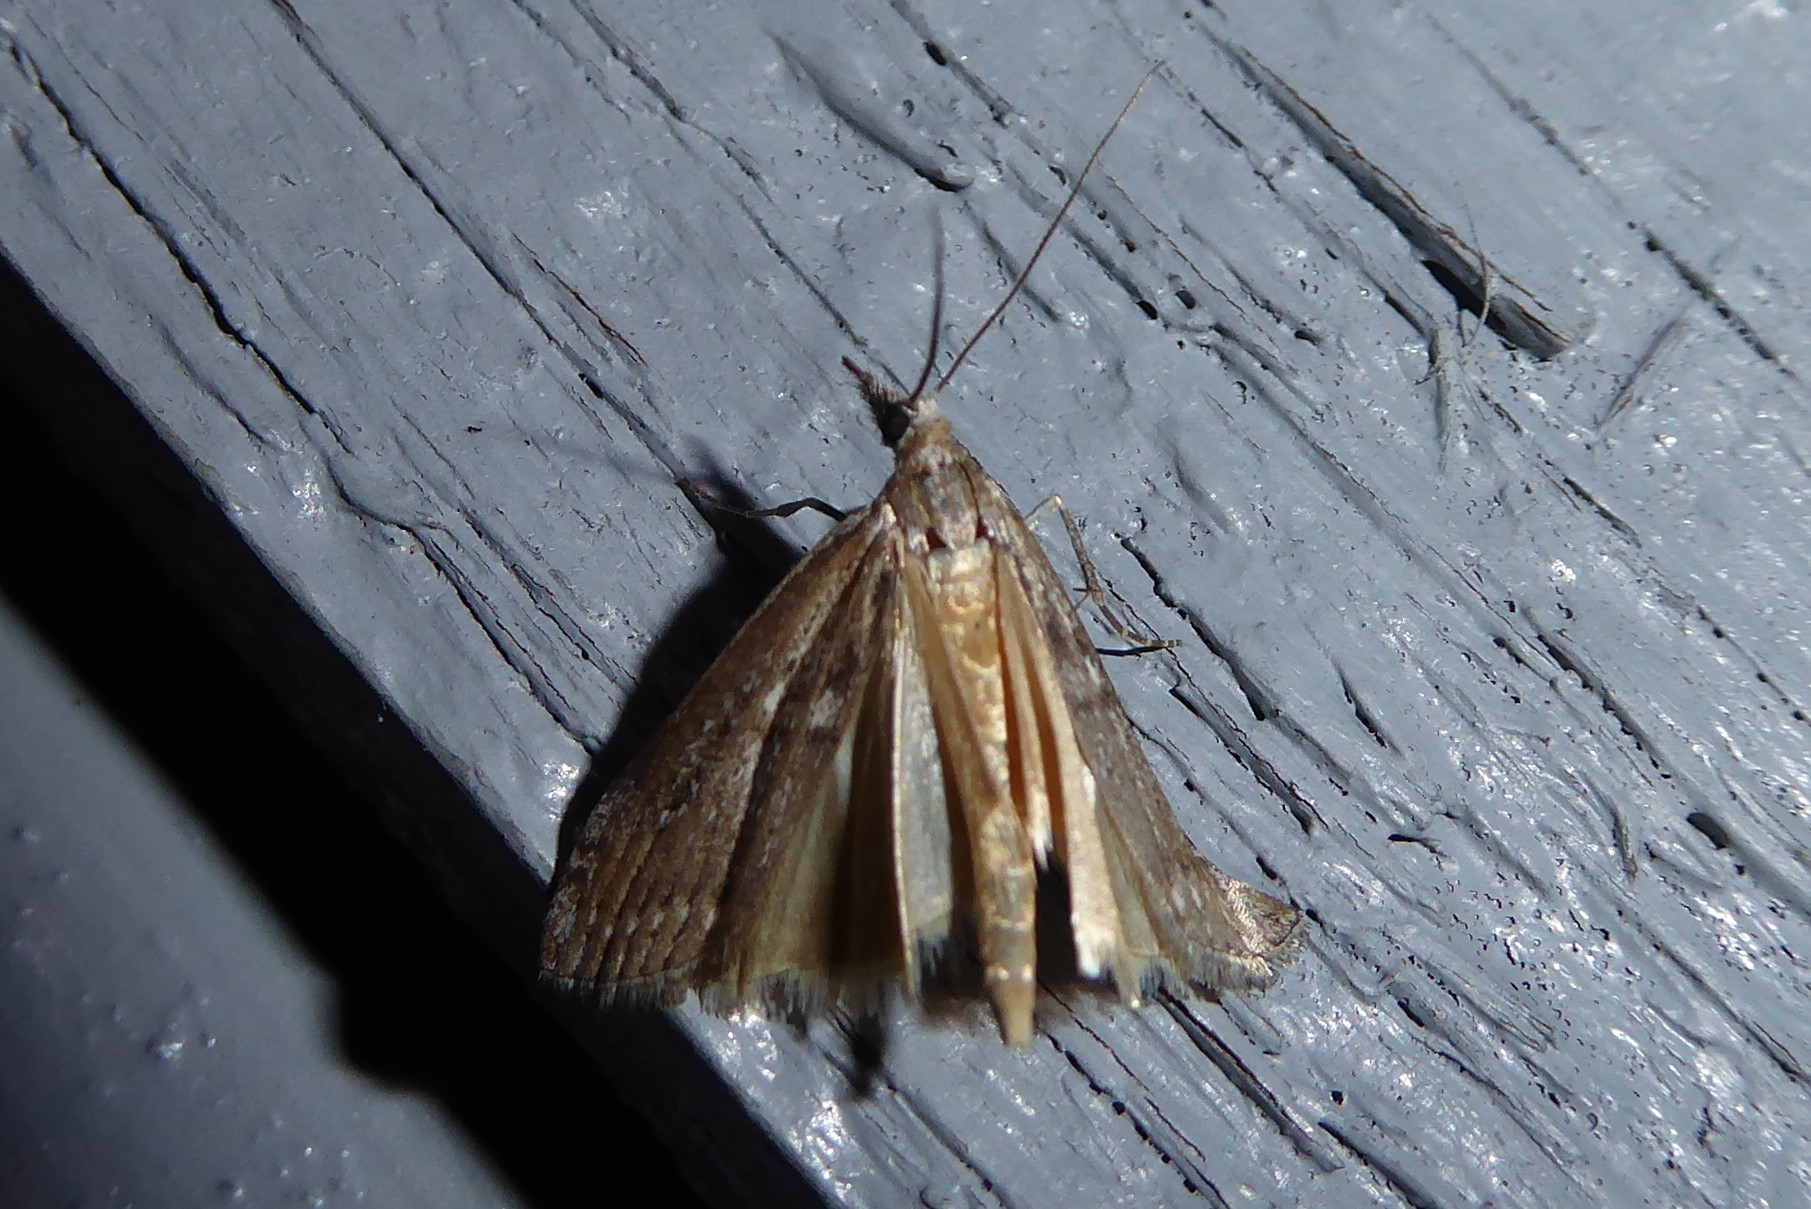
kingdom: Animalia
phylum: Arthropoda
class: Insecta
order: Lepidoptera
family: Crambidae
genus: Orocrambus
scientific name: Orocrambus cyclopicus
